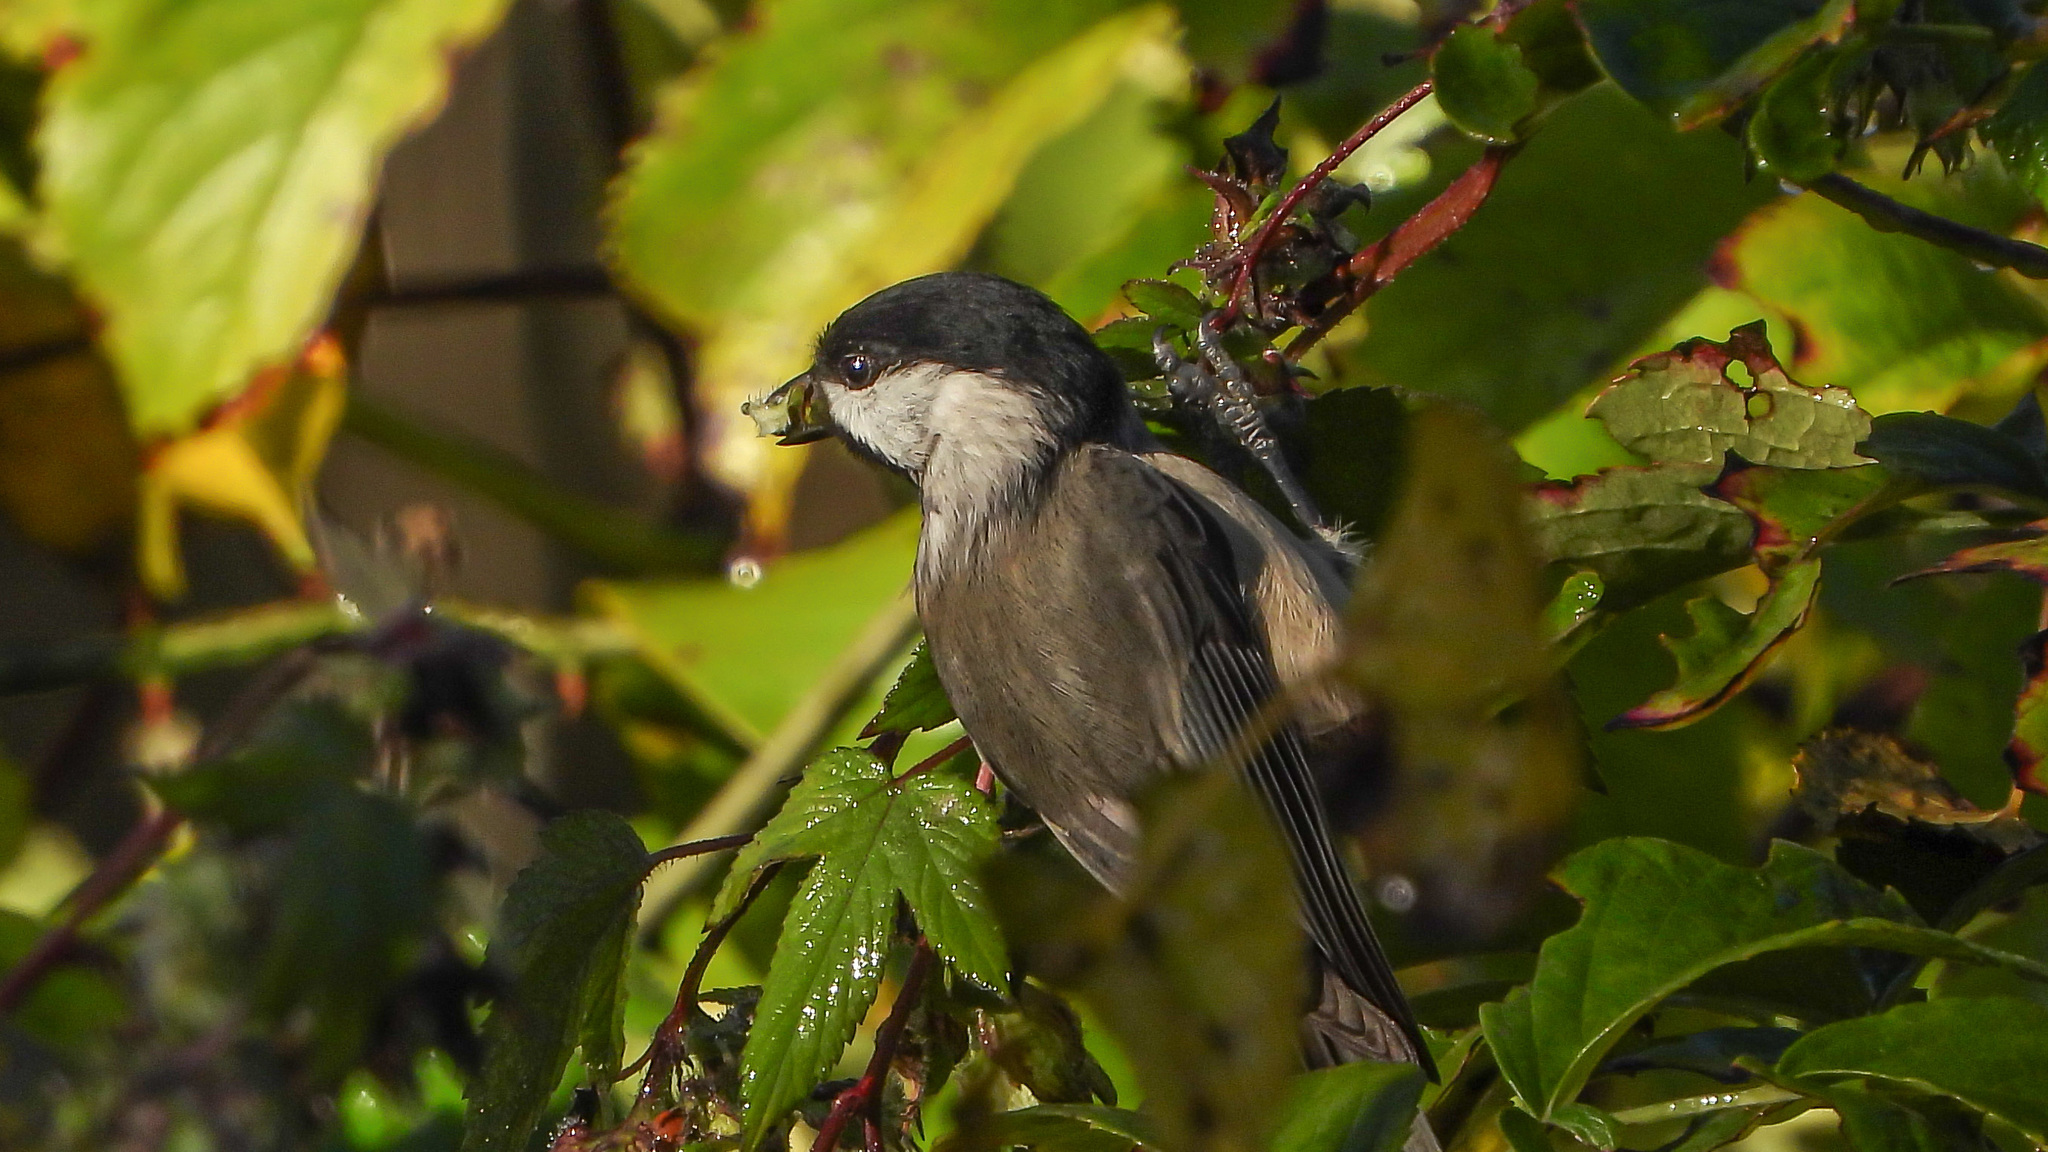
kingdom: Animalia
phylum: Chordata
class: Aves
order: Passeriformes
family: Paridae
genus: Poecile
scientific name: Poecile carolinensis
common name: Carolina chickadee
